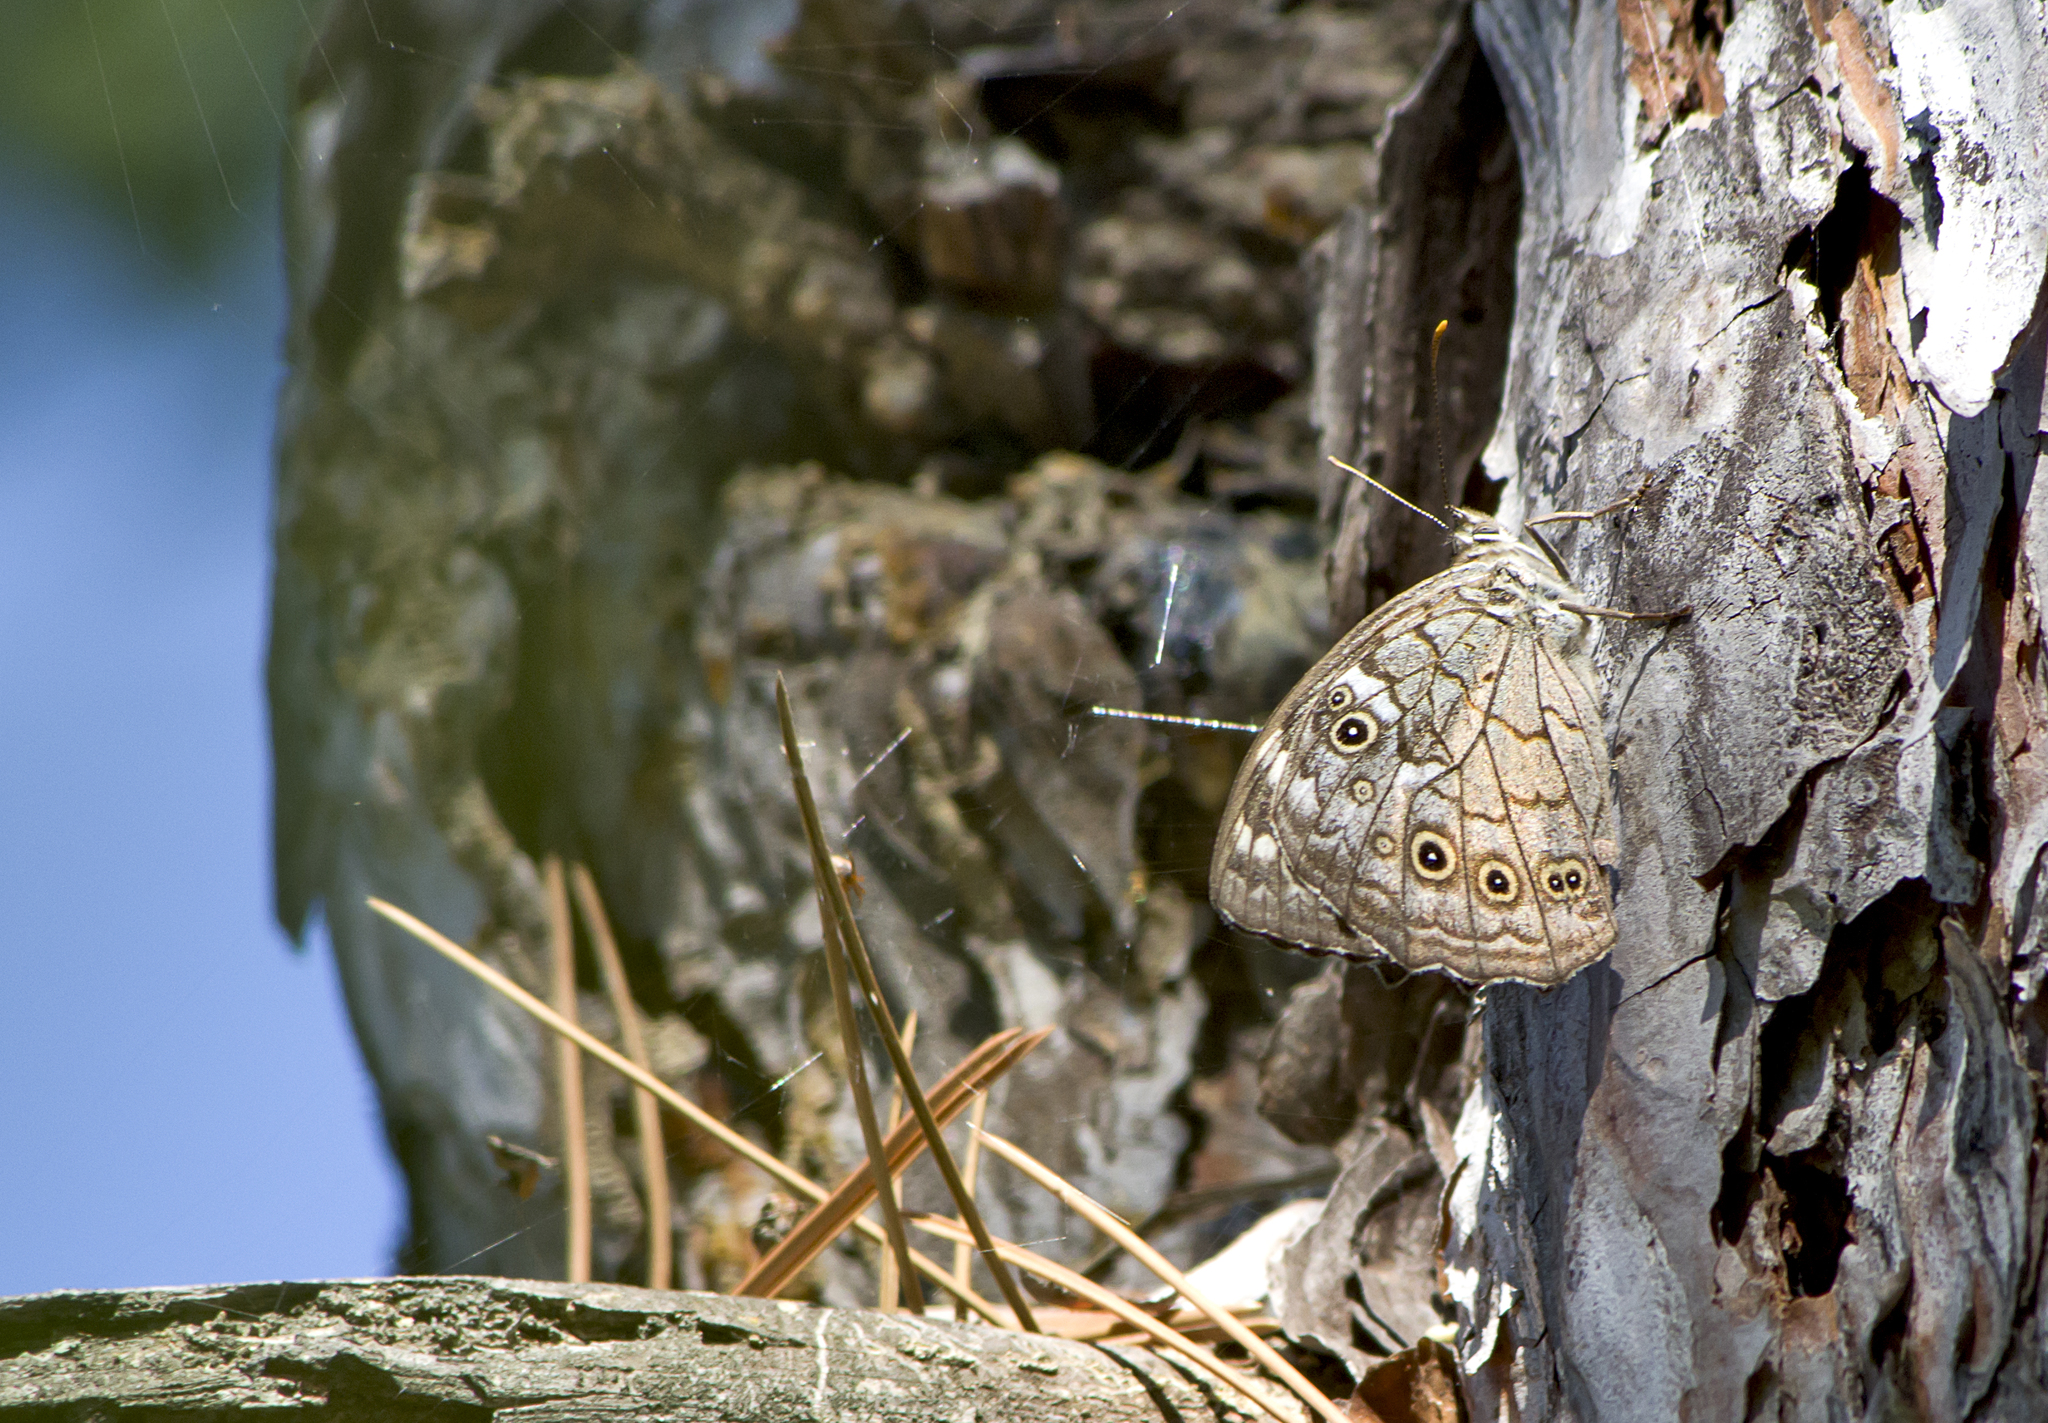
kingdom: Animalia
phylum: Arthropoda
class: Insecta
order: Lepidoptera
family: Nymphalidae
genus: Kirinia
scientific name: Kirinia roxelana
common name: Lattice brown
